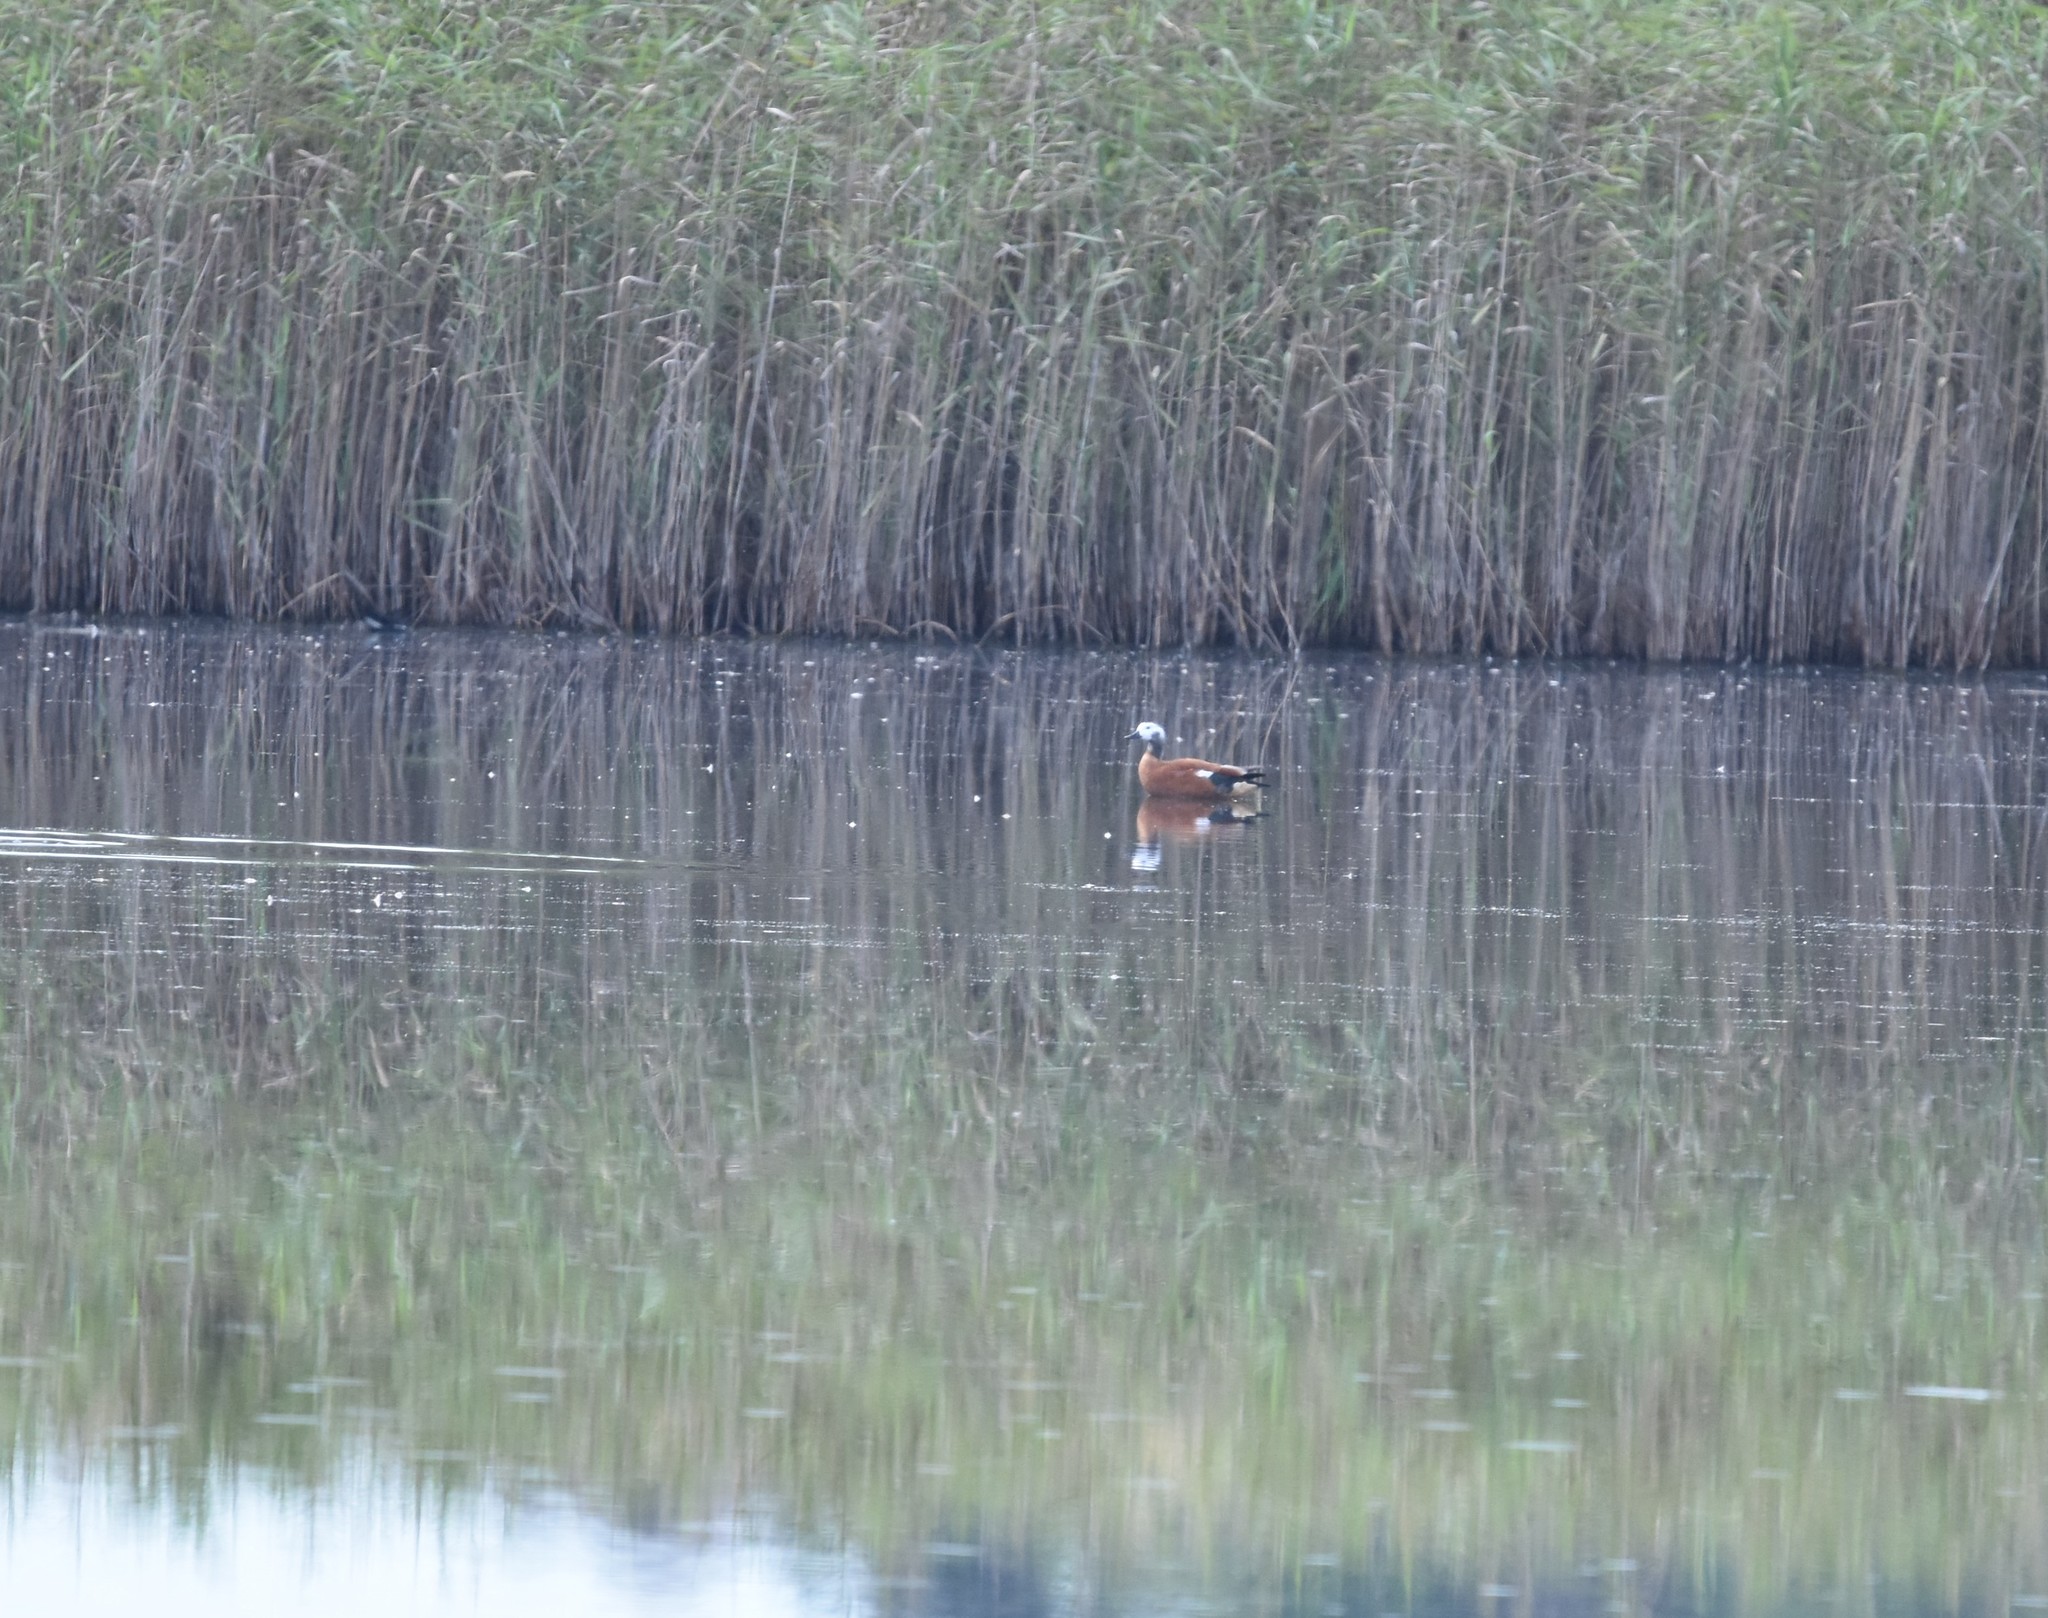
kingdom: Animalia
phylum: Chordata
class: Aves
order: Anseriformes
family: Anatidae
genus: Tadorna
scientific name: Tadorna cana
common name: South african shelduck
